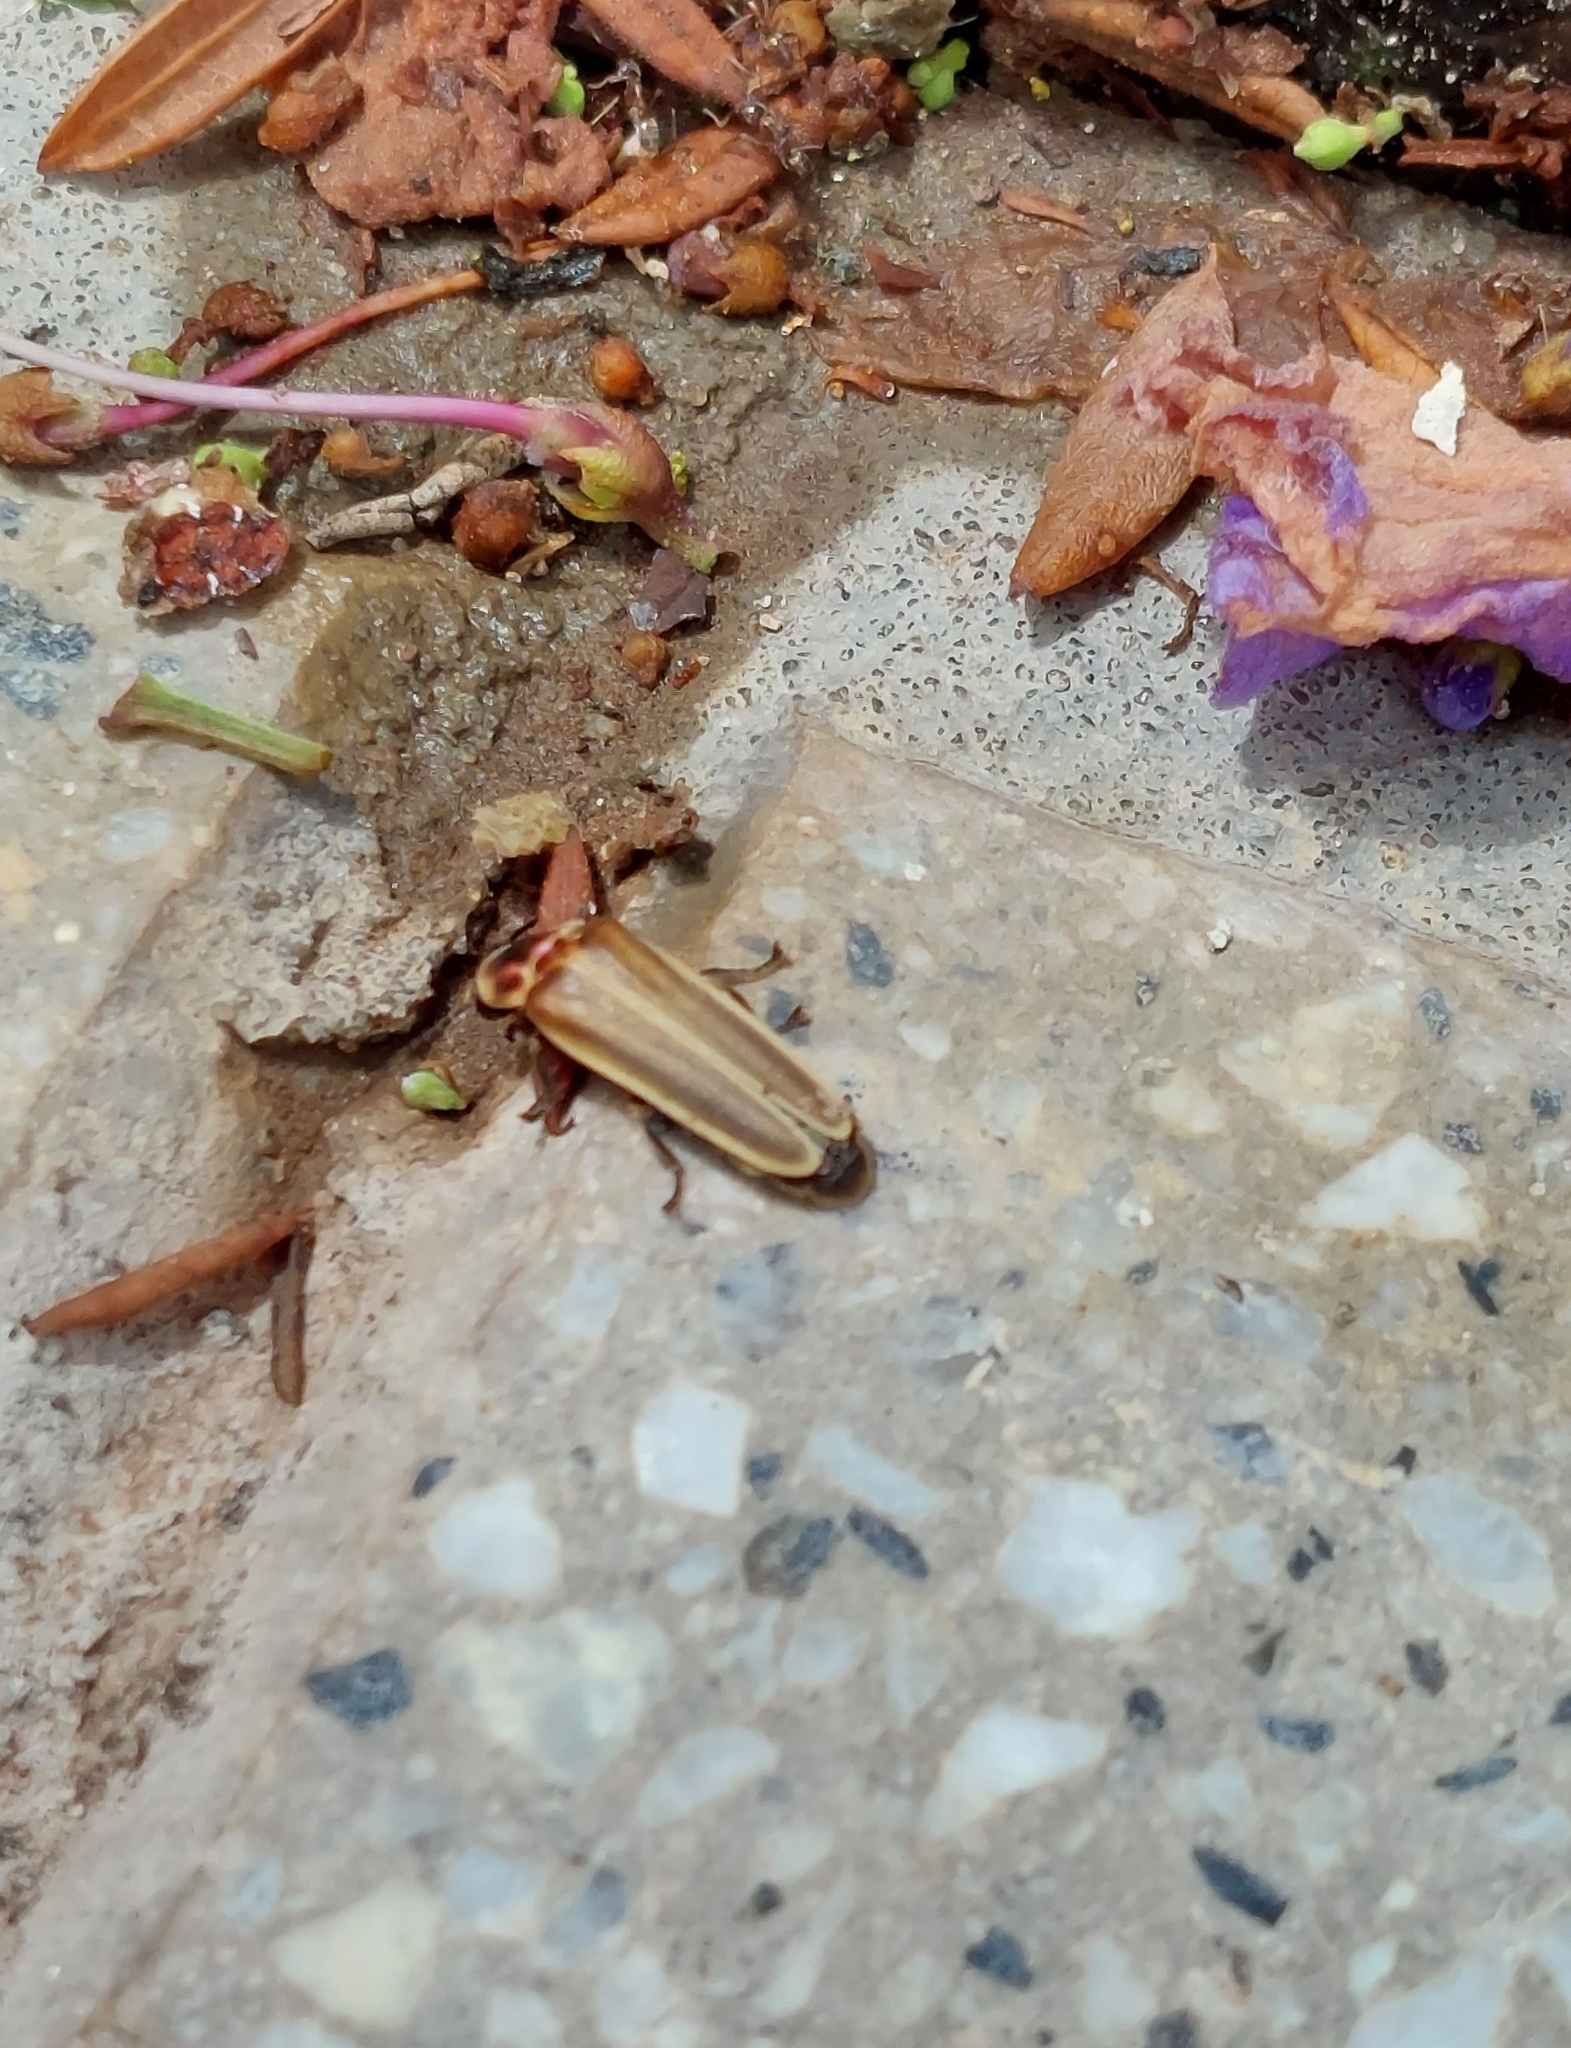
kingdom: Animalia
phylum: Arthropoda
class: Insecta
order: Coleoptera
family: Lampyridae
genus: Photinus
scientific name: Photinus signaticollis
